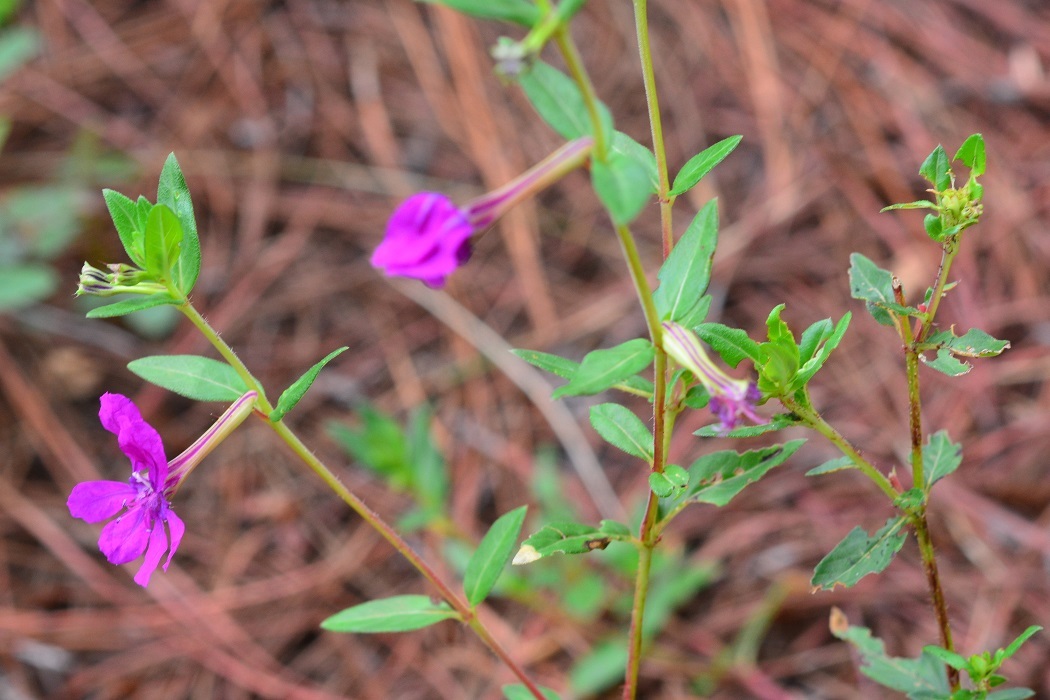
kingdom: Plantae
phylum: Tracheophyta
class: Magnoliopsida
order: Myrtales
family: Lythraceae
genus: Cuphea
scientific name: Cuphea aequipetala
